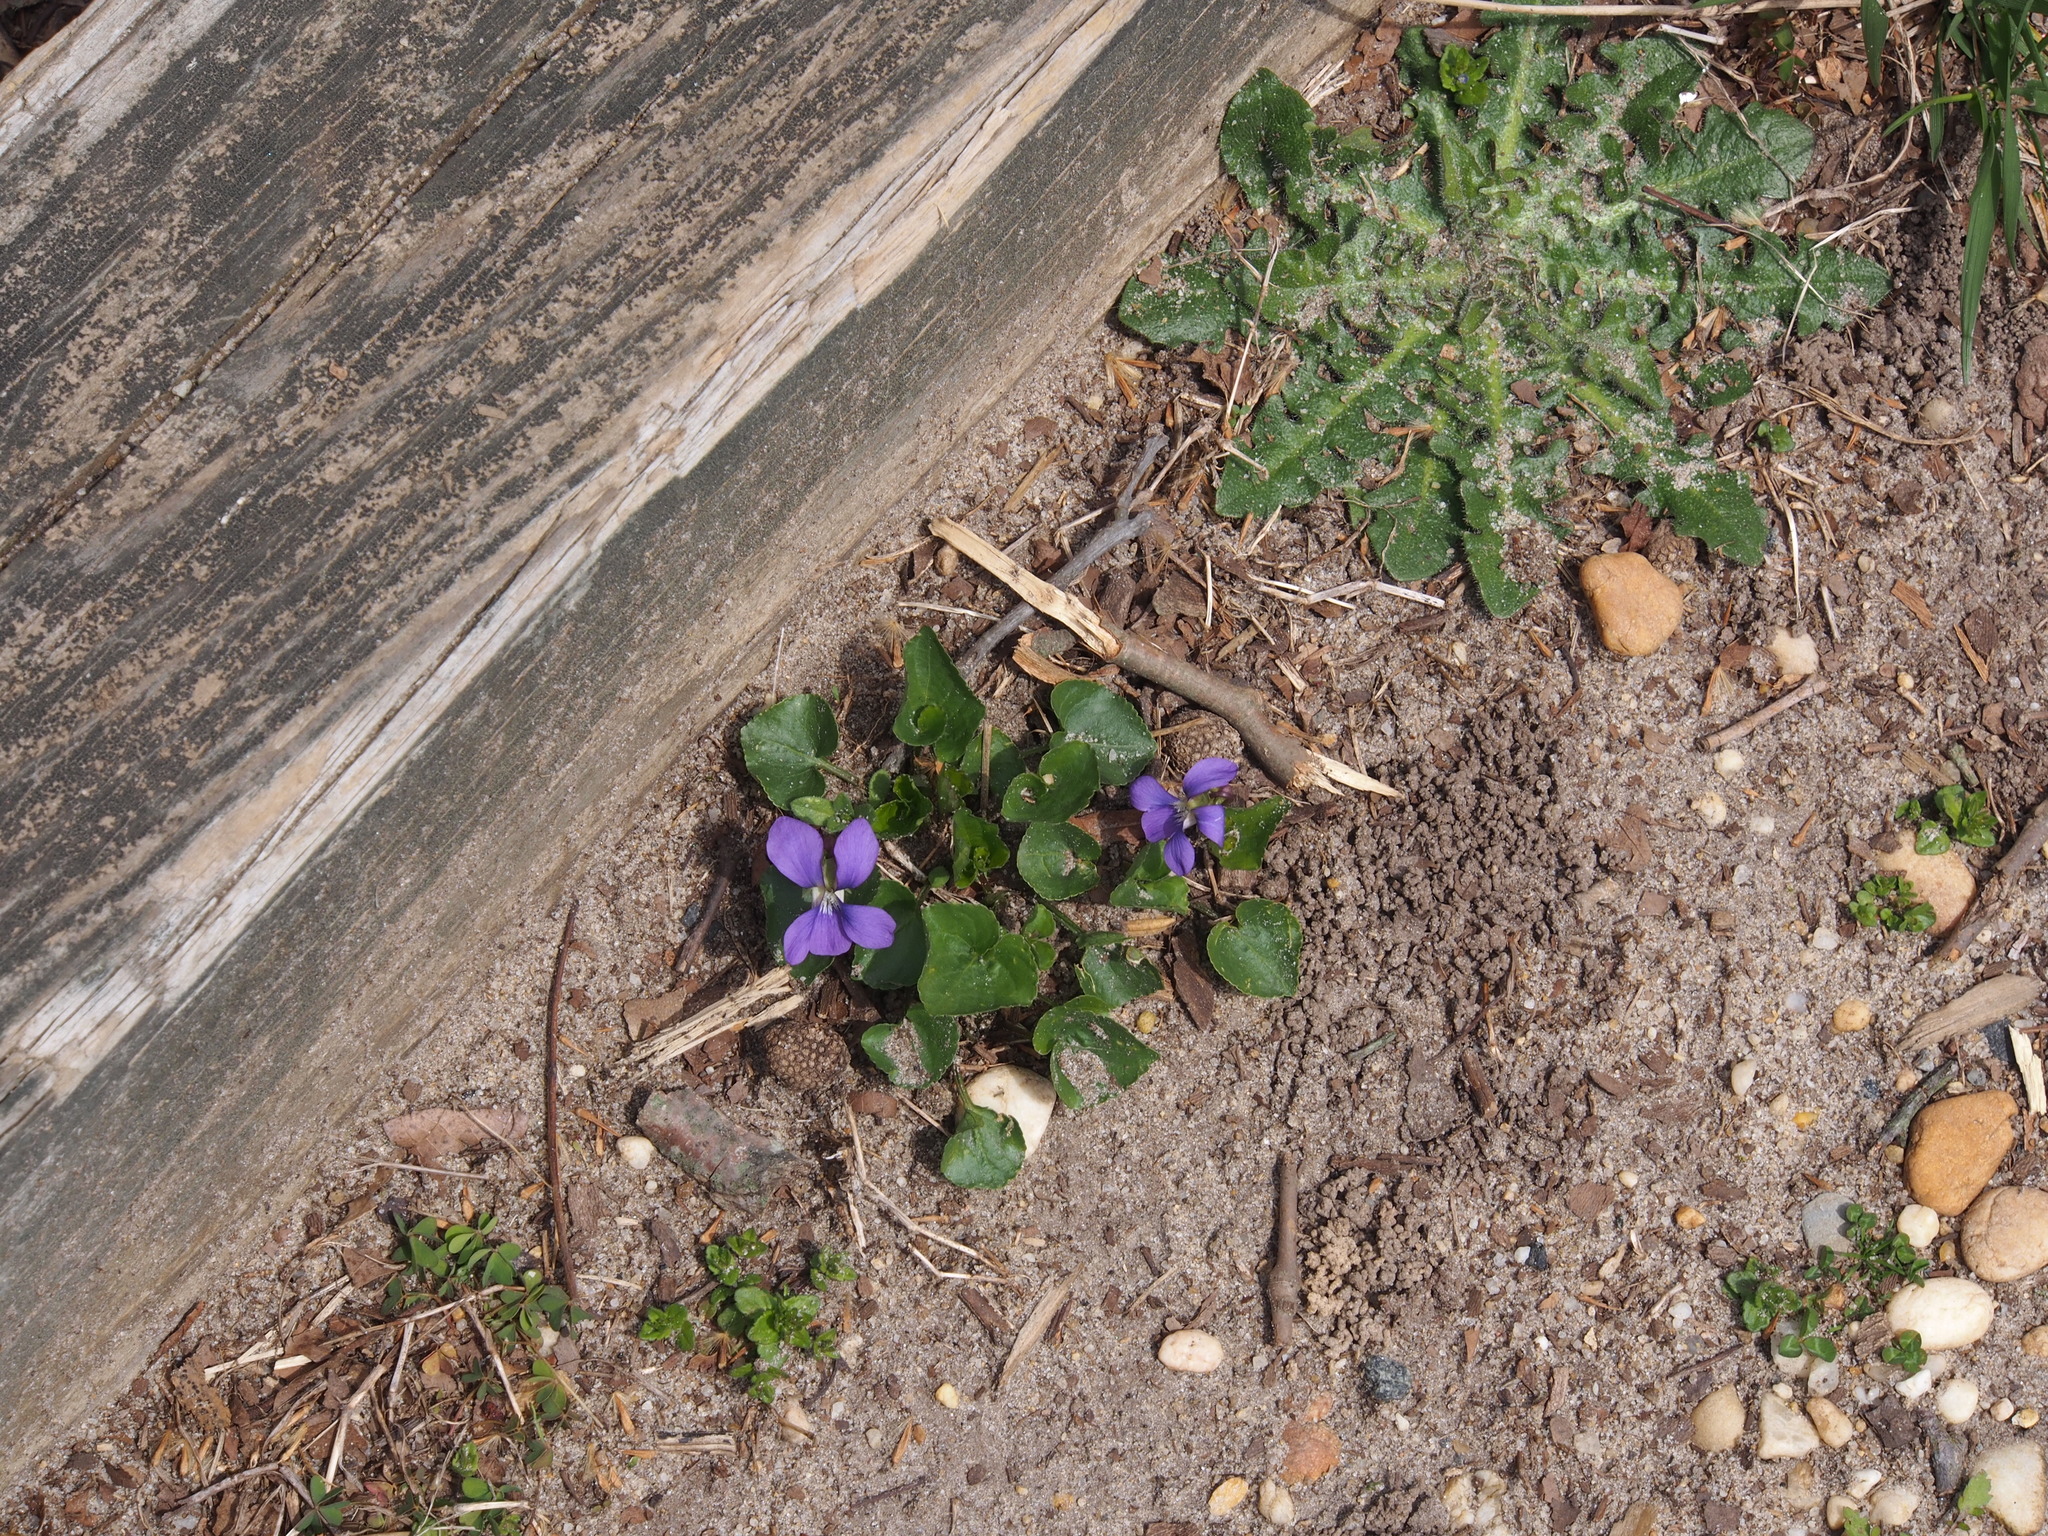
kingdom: Plantae
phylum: Tracheophyta
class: Magnoliopsida
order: Malpighiales
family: Violaceae
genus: Viola
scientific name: Viola sororia
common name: Dooryard violet
